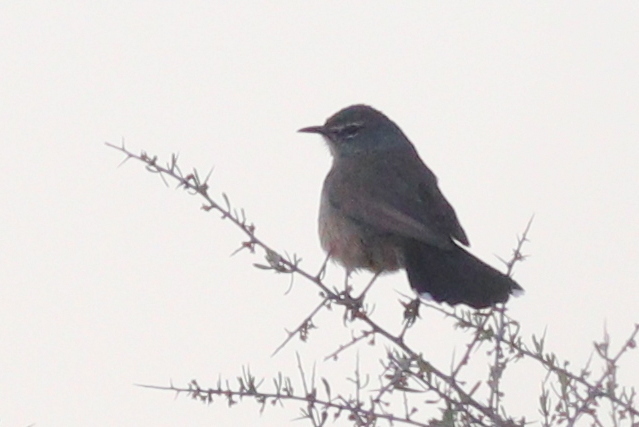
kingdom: Animalia
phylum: Chordata
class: Aves
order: Passeriformes
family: Muscicapidae
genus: Erythropygia
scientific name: Erythropygia coryphoeus
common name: Karoo scrub robin
